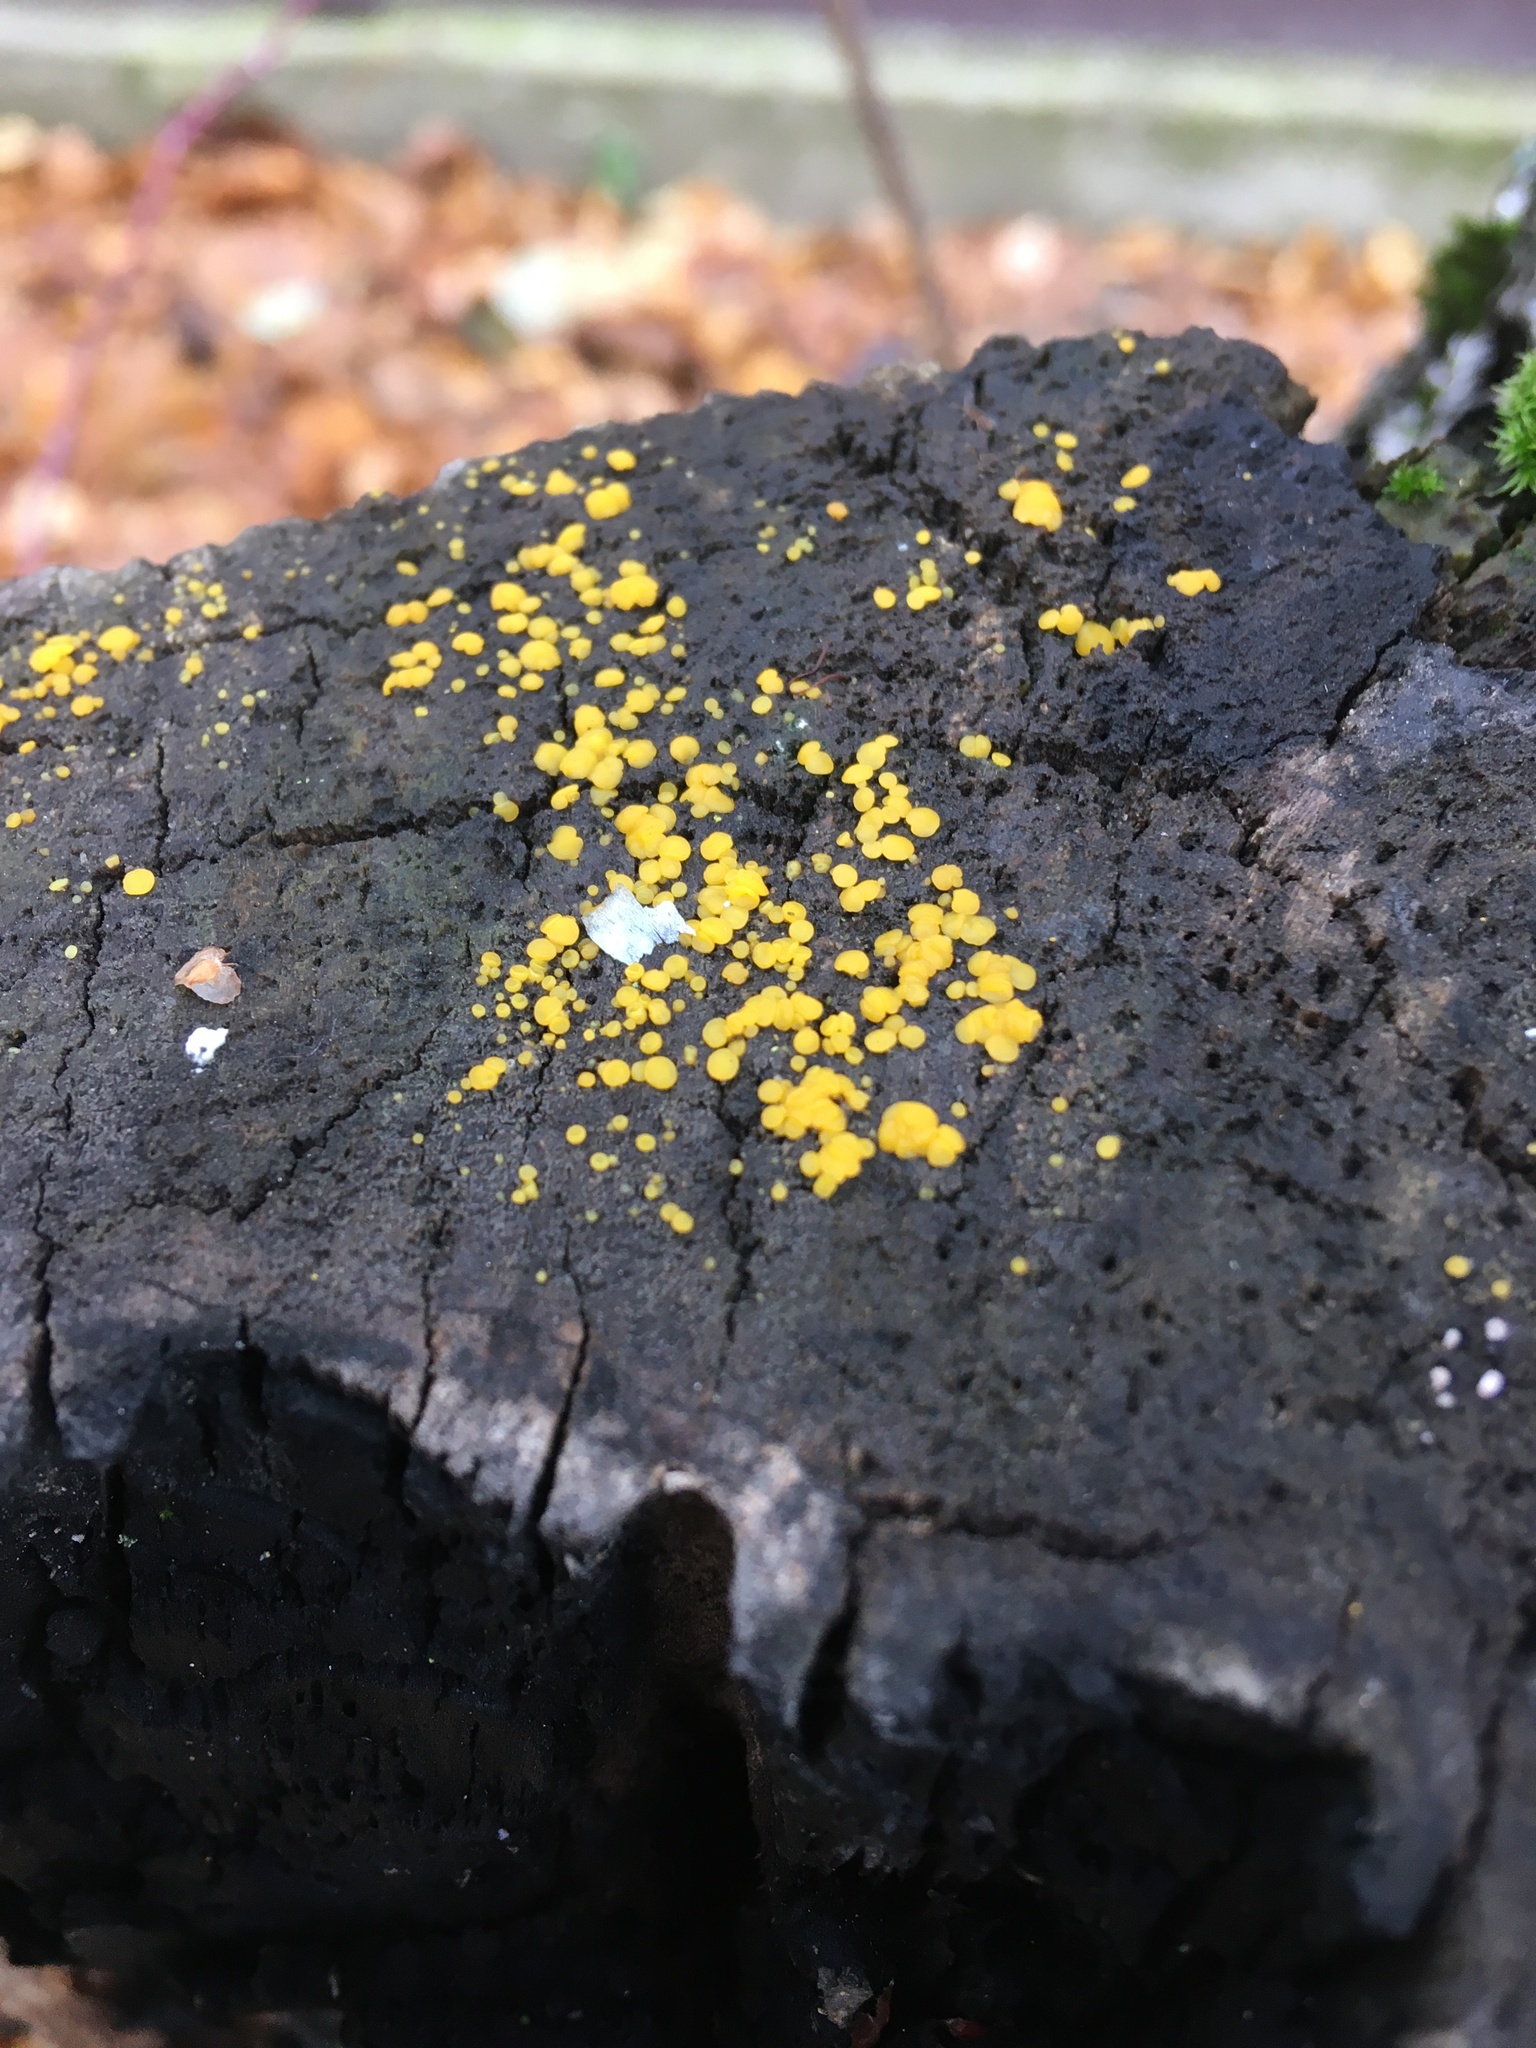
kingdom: Fungi
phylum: Ascomycota
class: Leotiomycetes
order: Helotiales
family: Pezizellaceae
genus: Calycina
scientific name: Calycina citrina
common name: Yellow fairy cups
